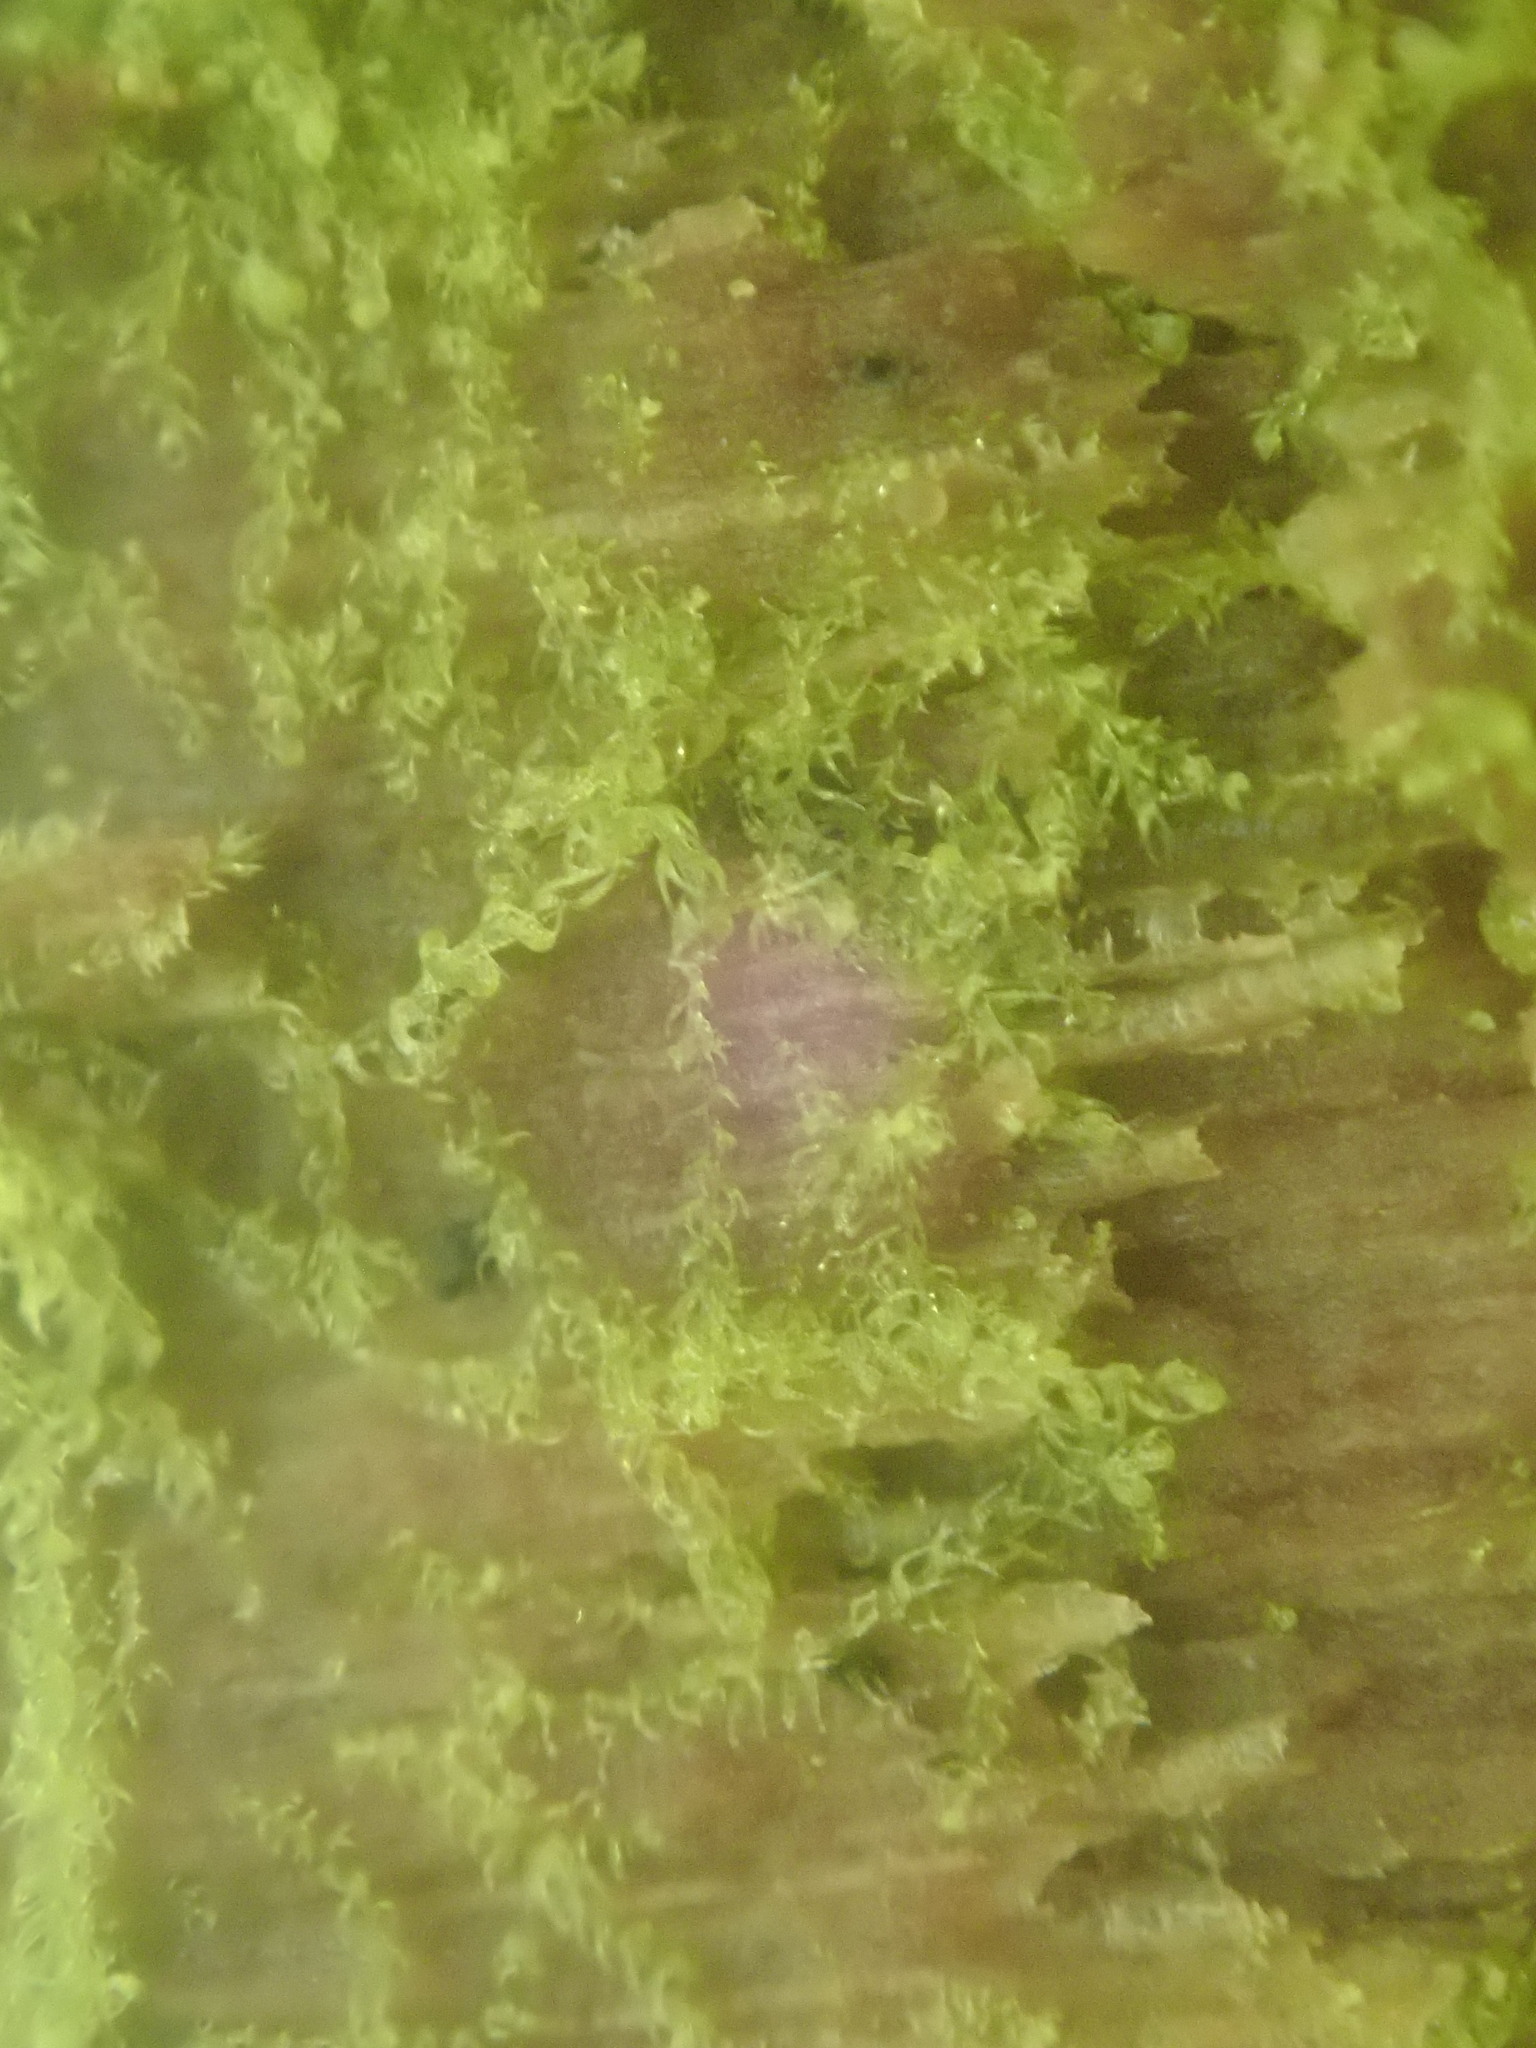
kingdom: Plantae
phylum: Marchantiophyta
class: Jungermanniopsida
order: Jungermanniales
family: Cephaloziaceae
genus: Nowellia
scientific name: Nowellia curvifolia
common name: Wood rustwort
